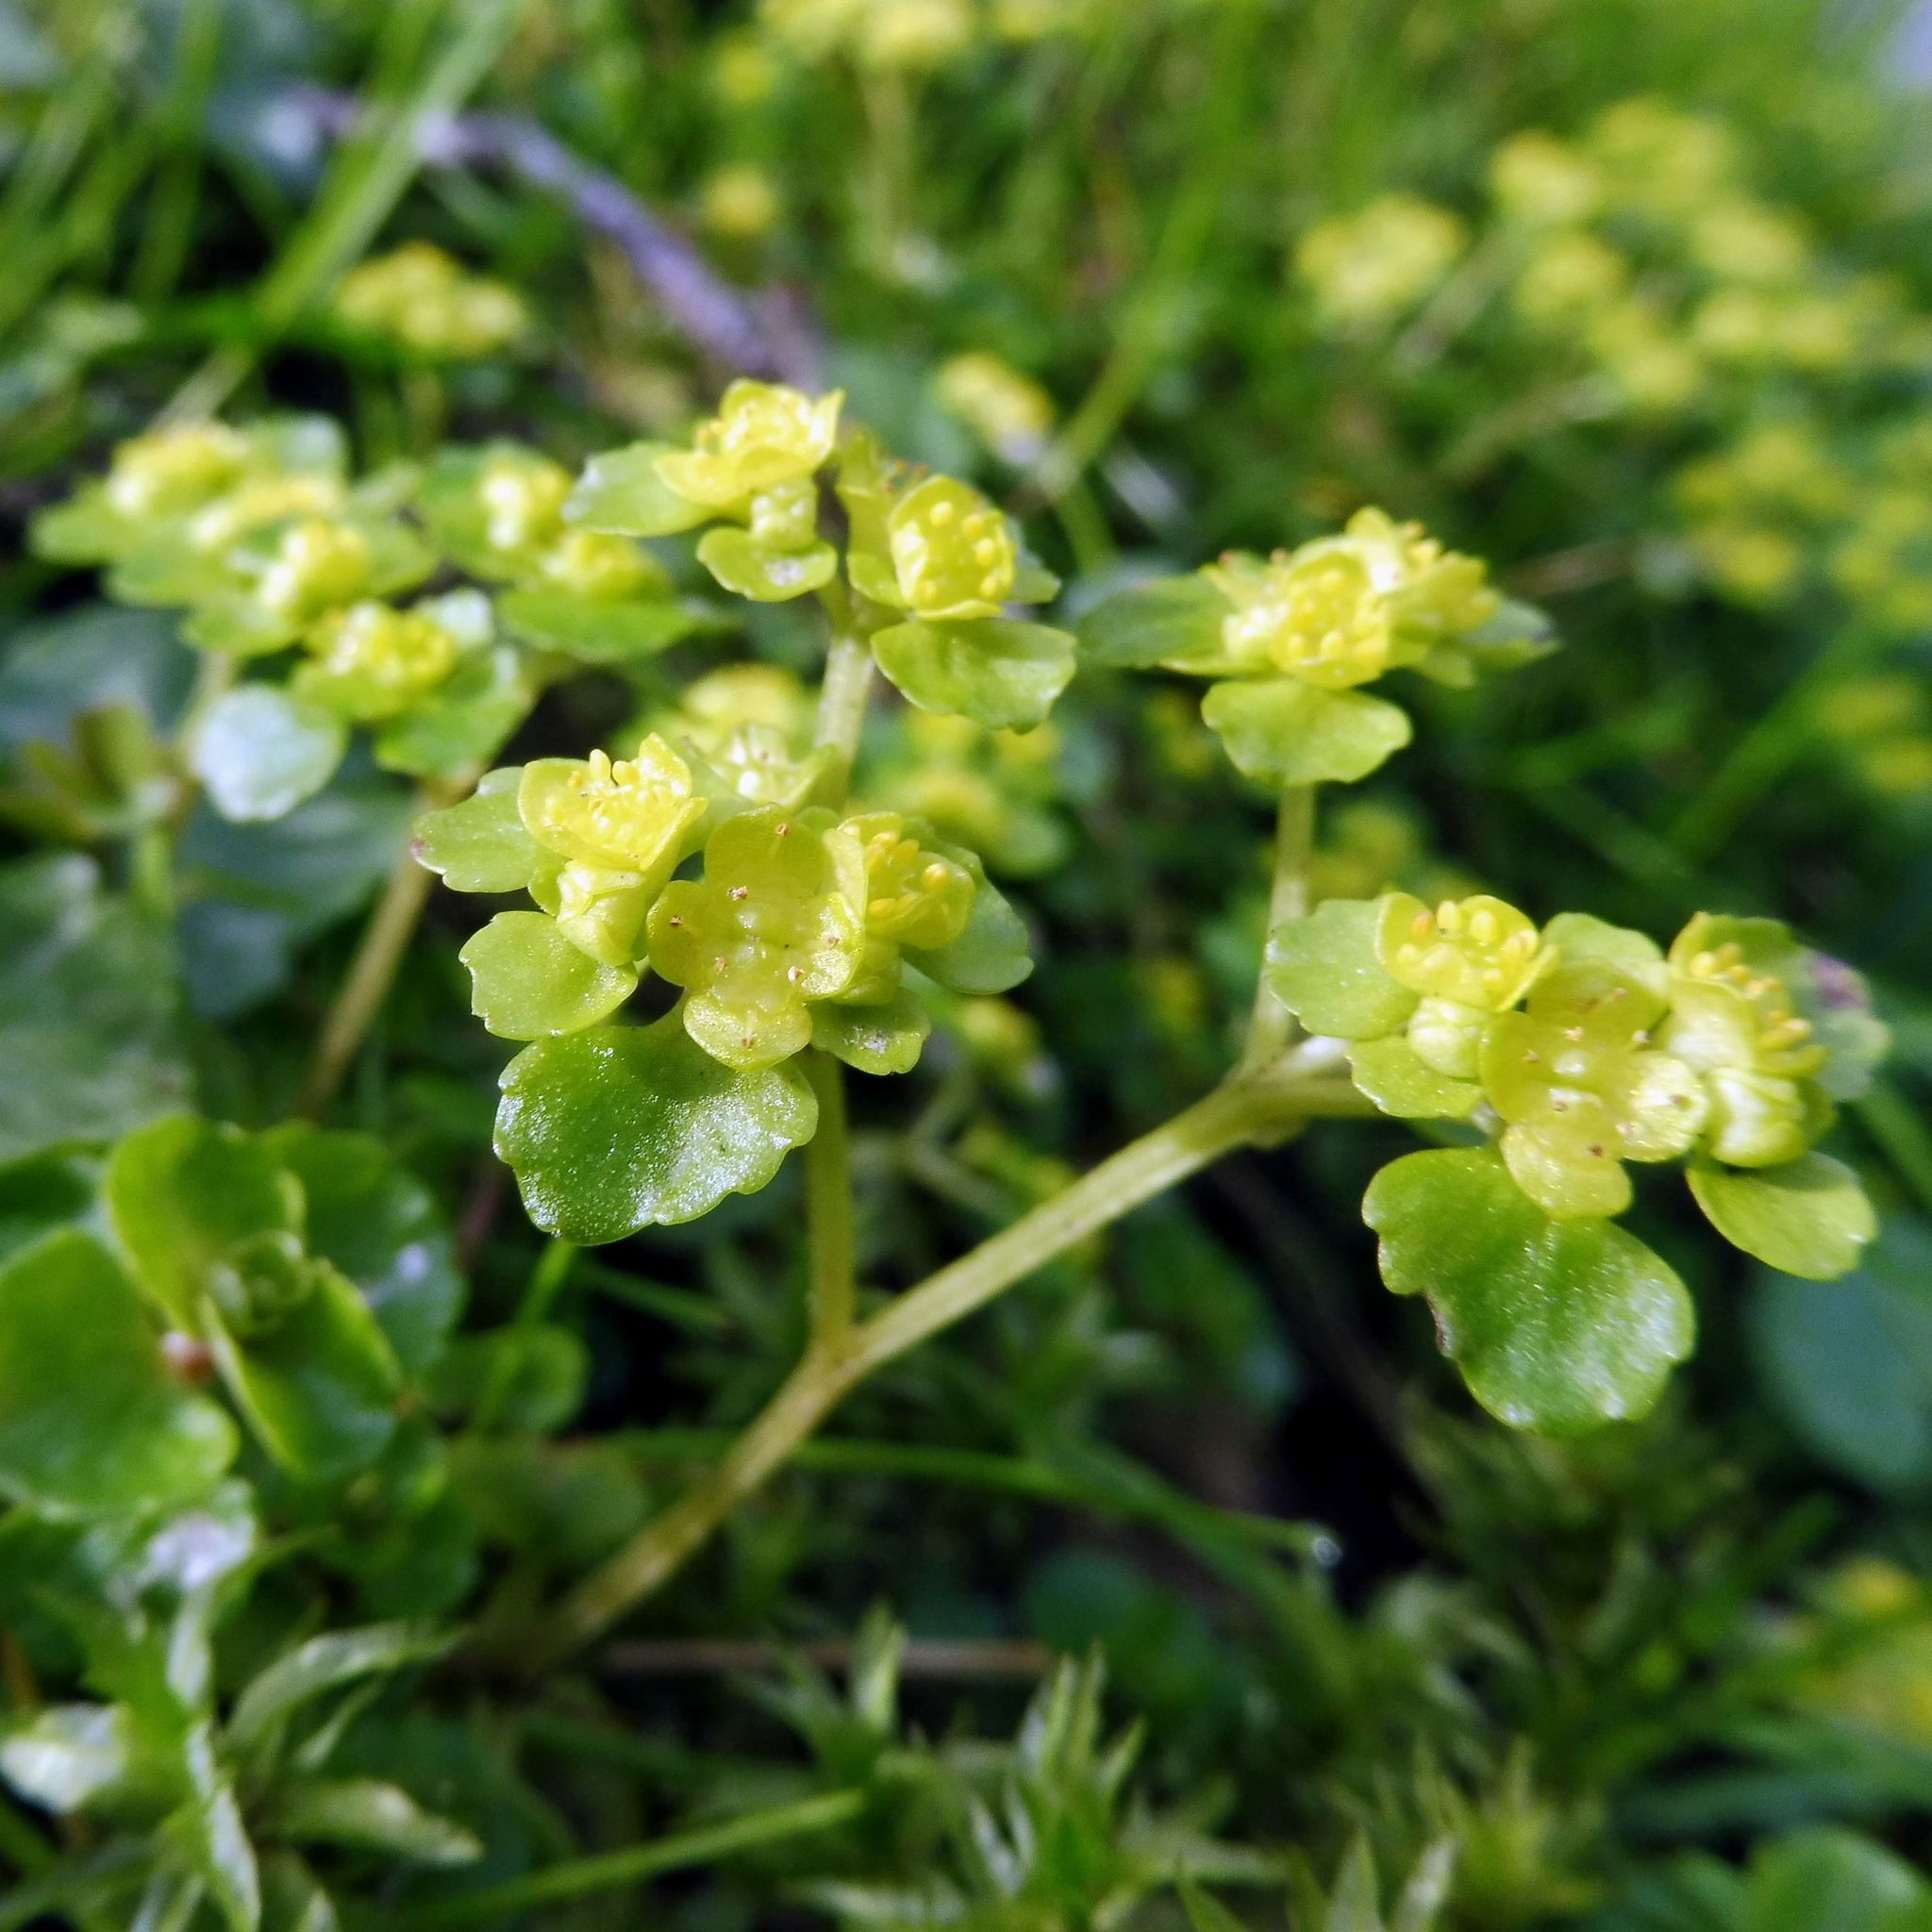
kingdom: Plantae
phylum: Tracheophyta
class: Magnoliopsida
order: Saxifragales
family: Saxifragaceae
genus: Chrysosplenium
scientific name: Chrysosplenium oppositifolium
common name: Opposite-leaved golden-saxifrage
